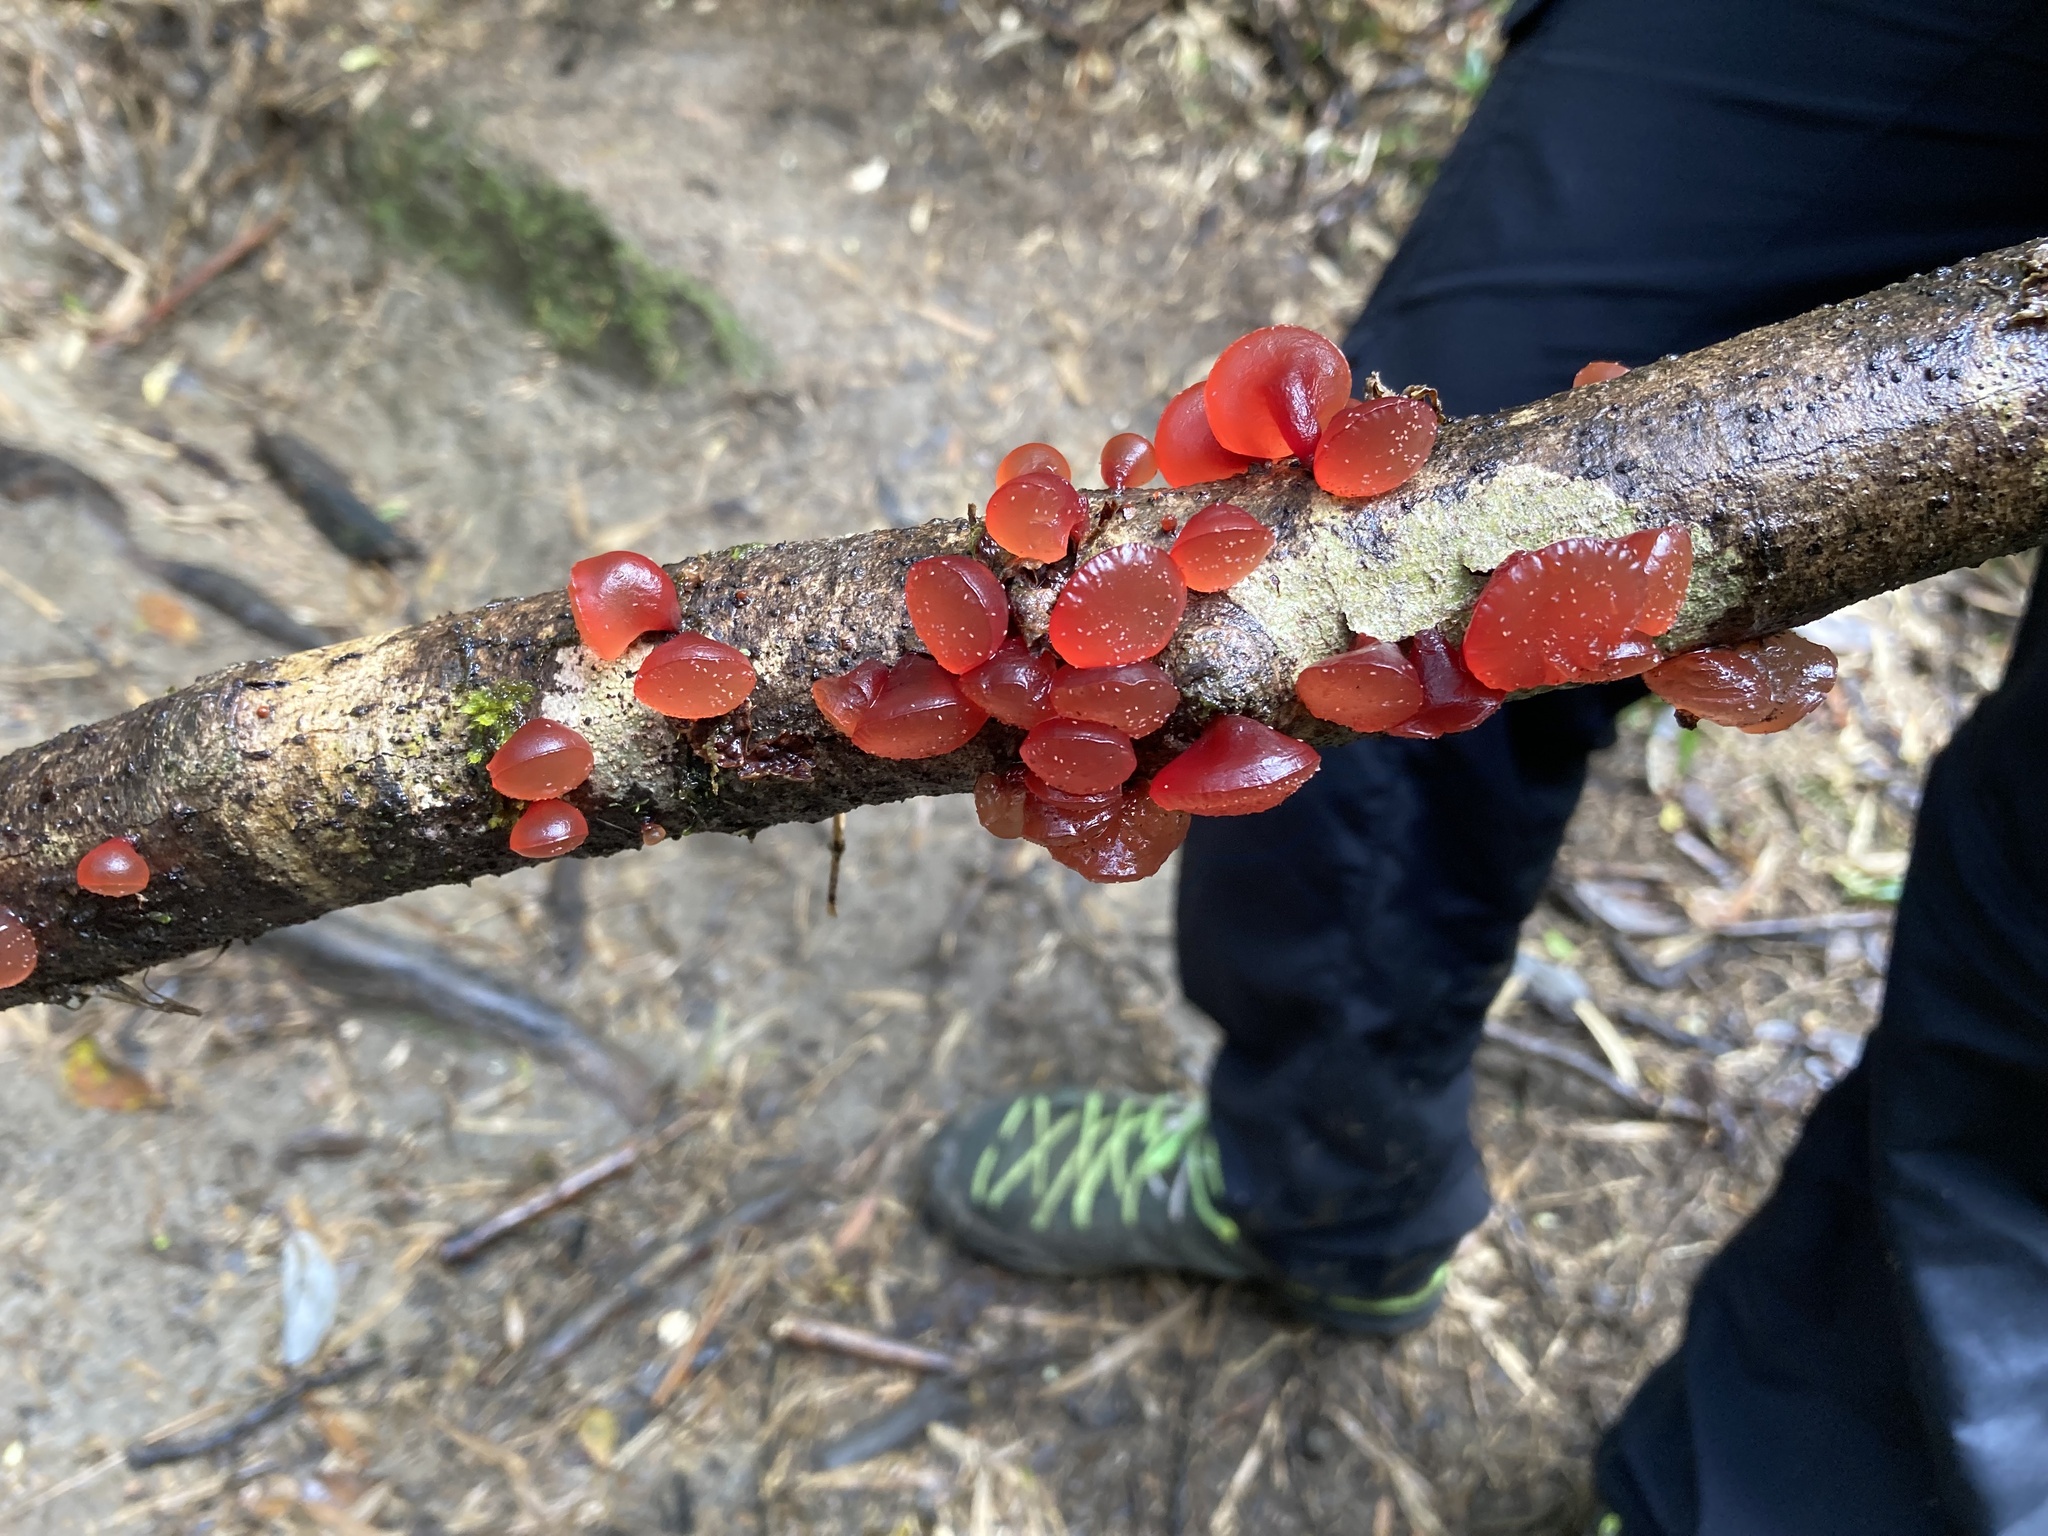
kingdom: Fungi
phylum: Basidiomycota
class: Dacrymycetes
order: Dacrymycetales
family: Dacrymycetaceae
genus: Guepiniopsis
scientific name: Guepiniopsis alpina
